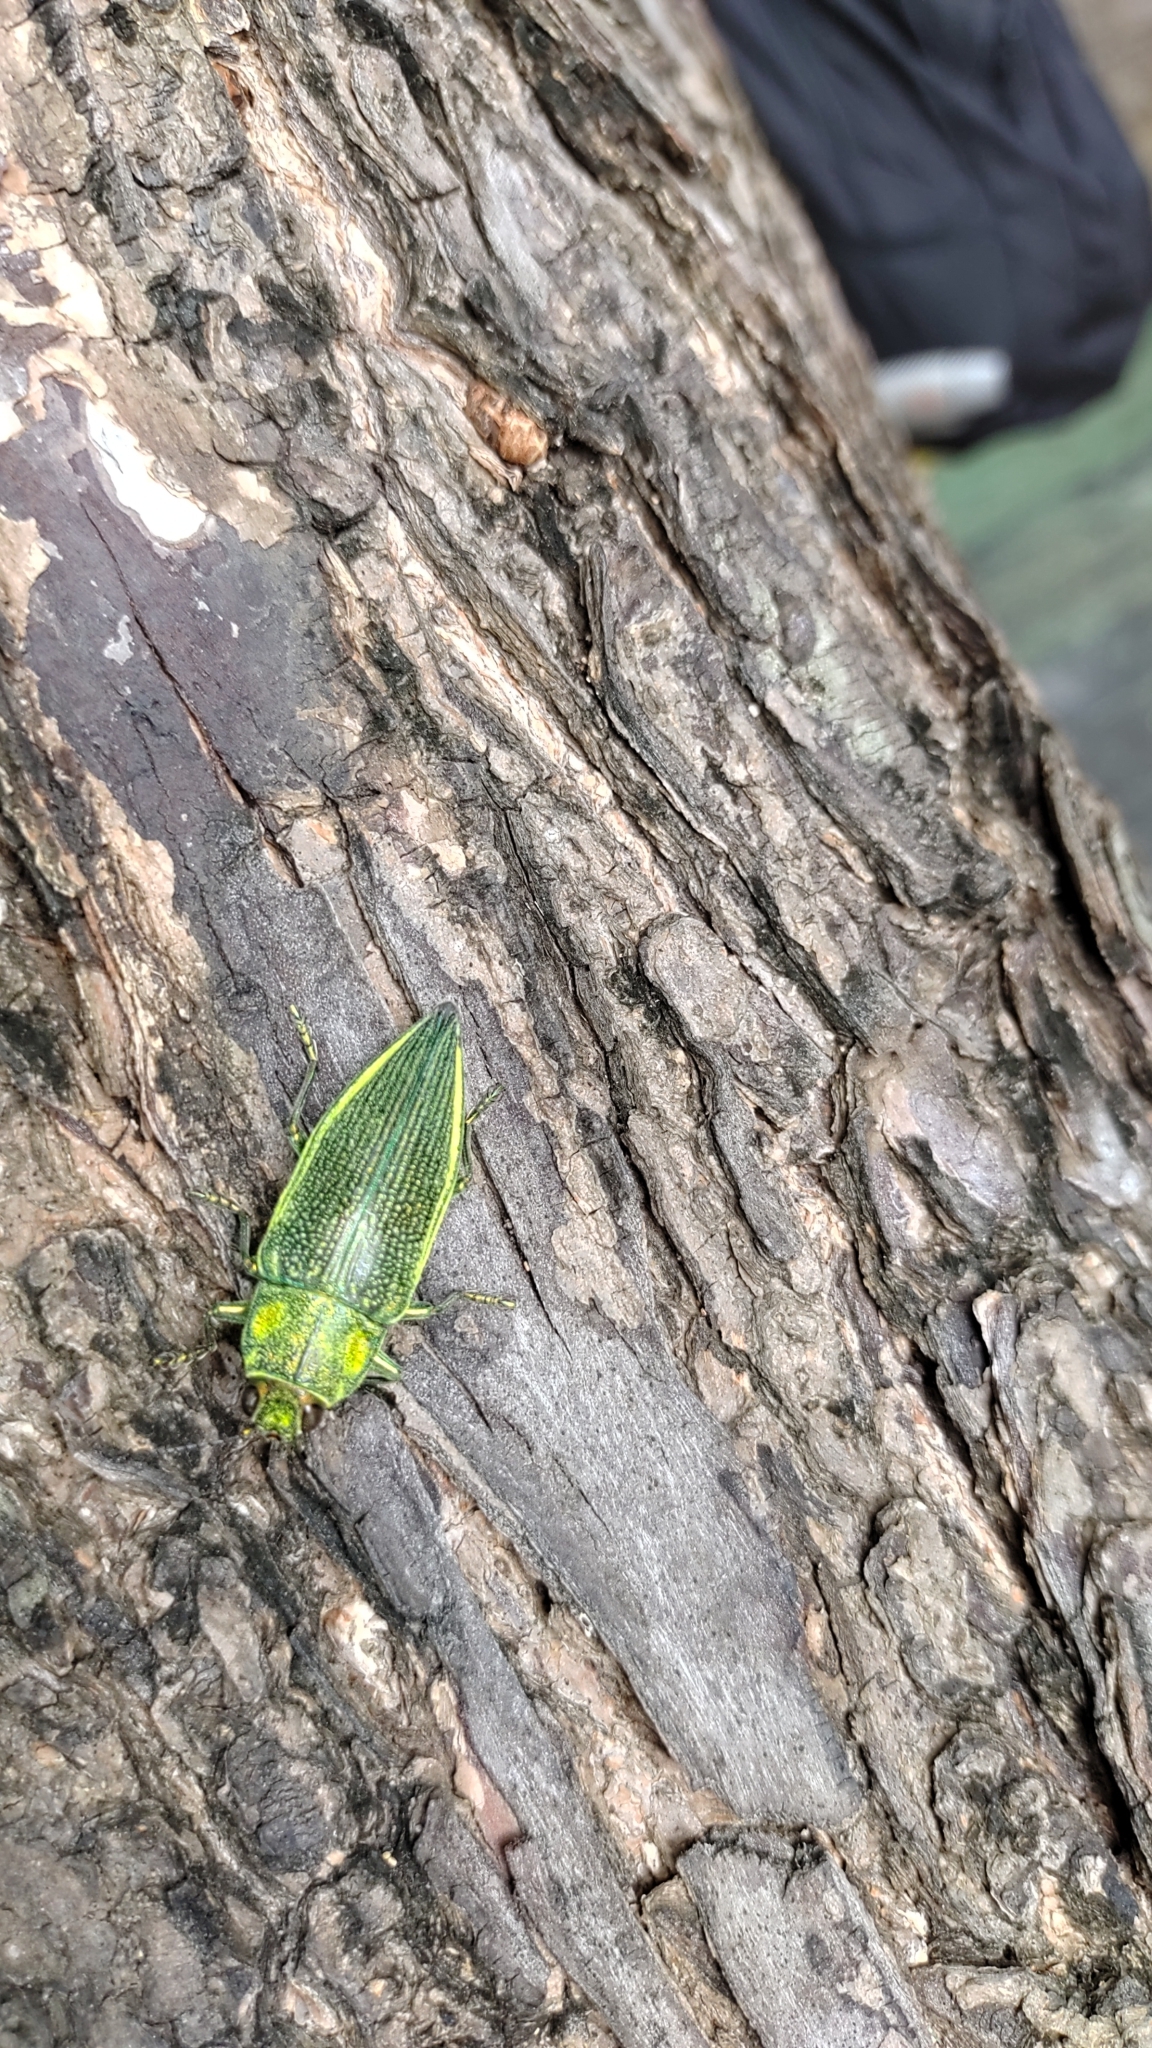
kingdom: Animalia
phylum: Arthropoda
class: Insecta
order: Coleoptera
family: Buprestidae
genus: Chrysodema
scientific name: Chrysodema dalmanni
